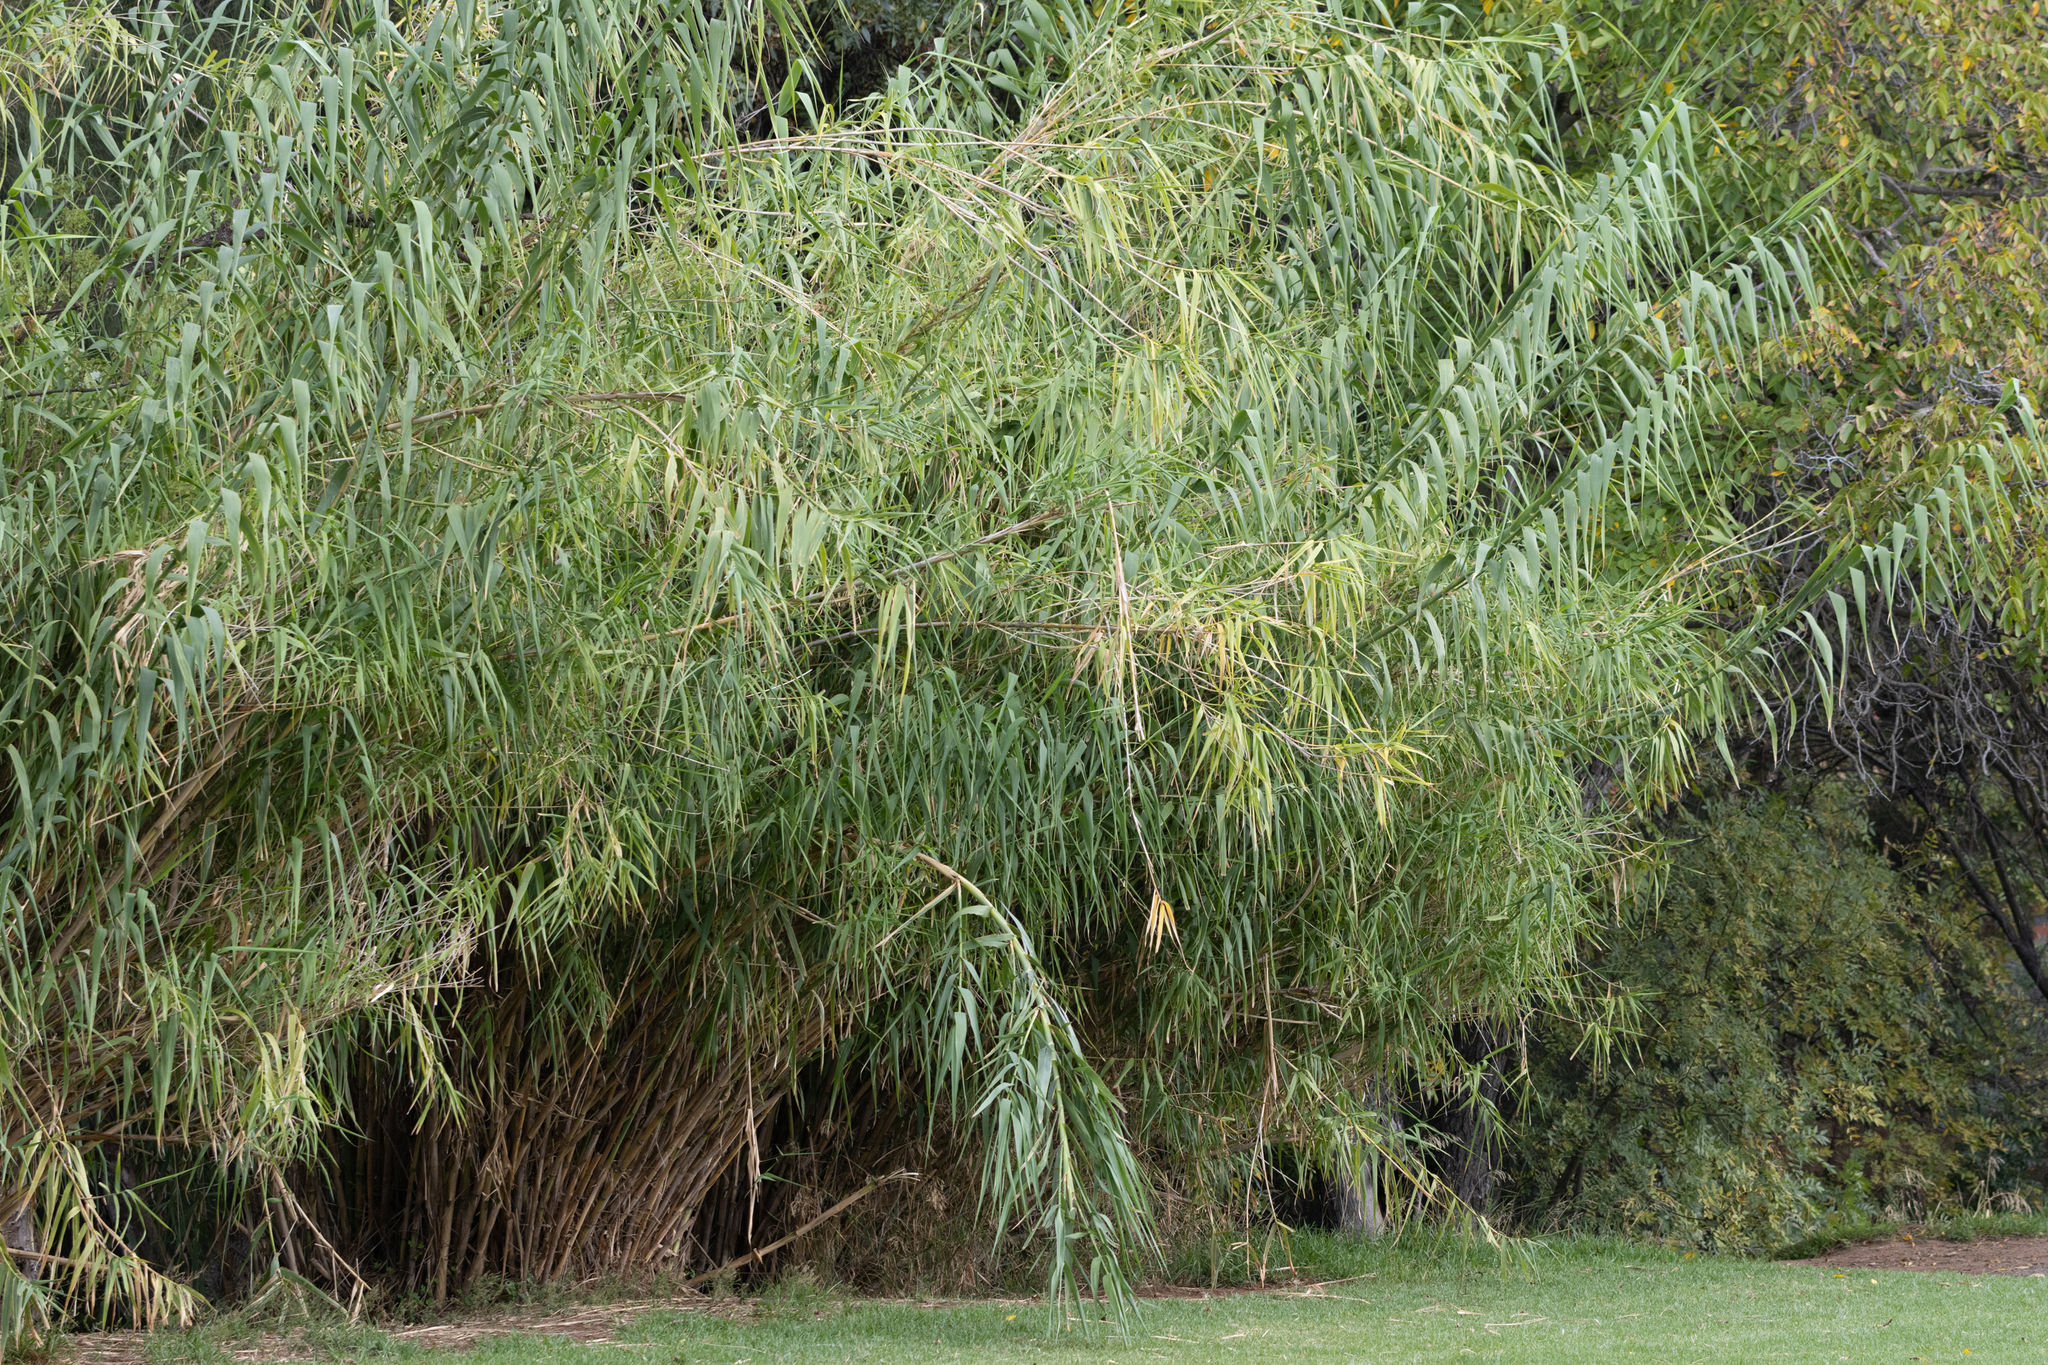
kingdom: Plantae
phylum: Tracheophyta
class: Liliopsida
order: Poales
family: Poaceae
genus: Arundo
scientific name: Arundo donax
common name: Giant reed
